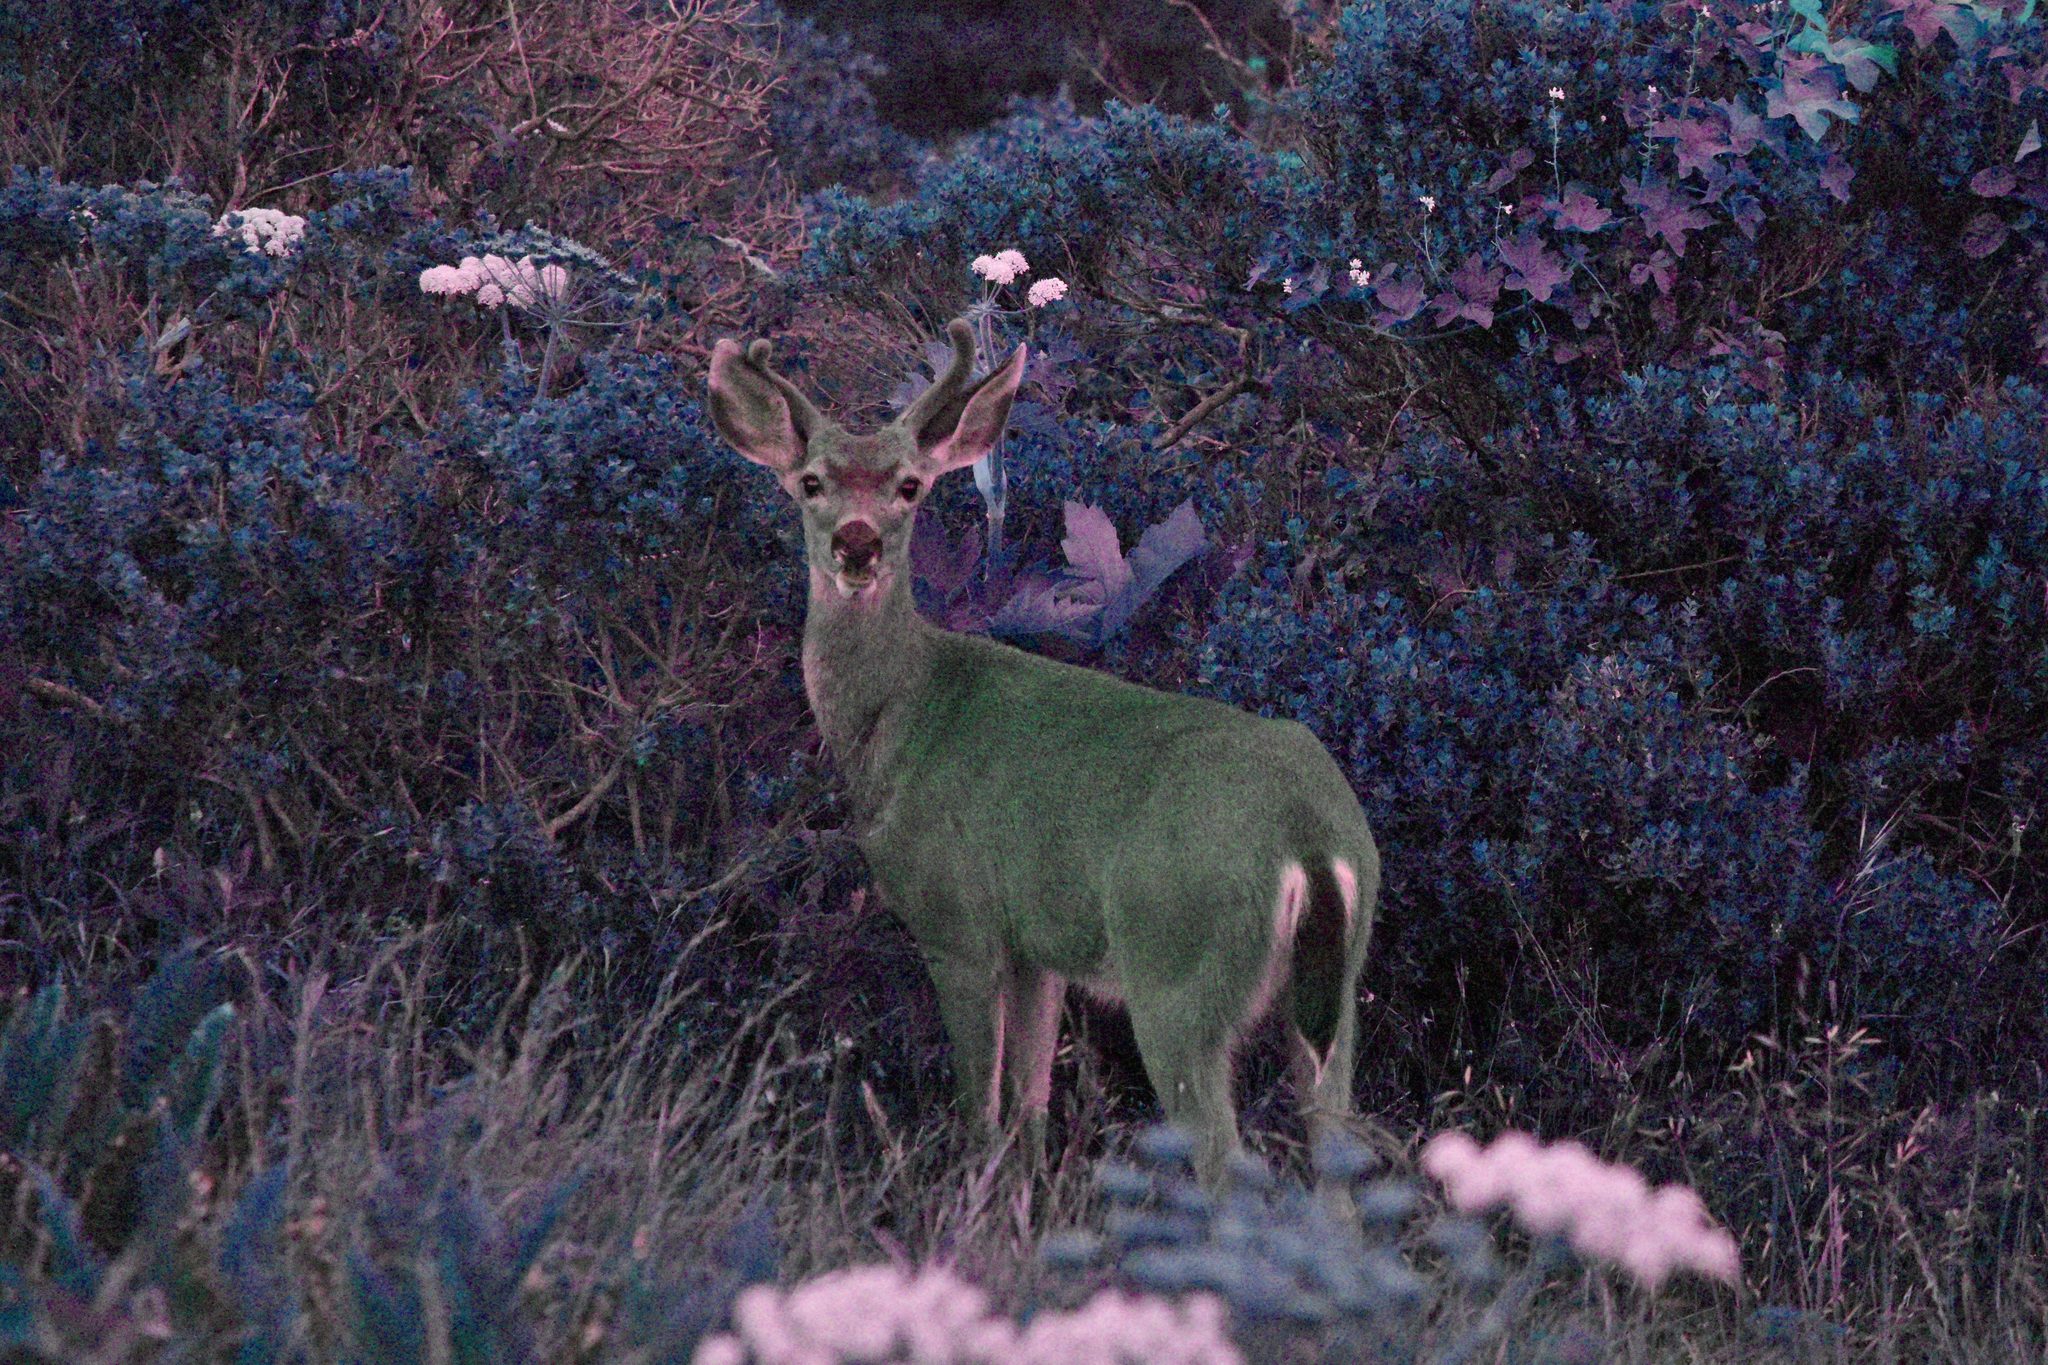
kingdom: Animalia
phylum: Chordata
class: Mammalia
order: Artiodactyla
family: Cervidae
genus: Odocoileus
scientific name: Odocoileus hemionus
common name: Mule deer
